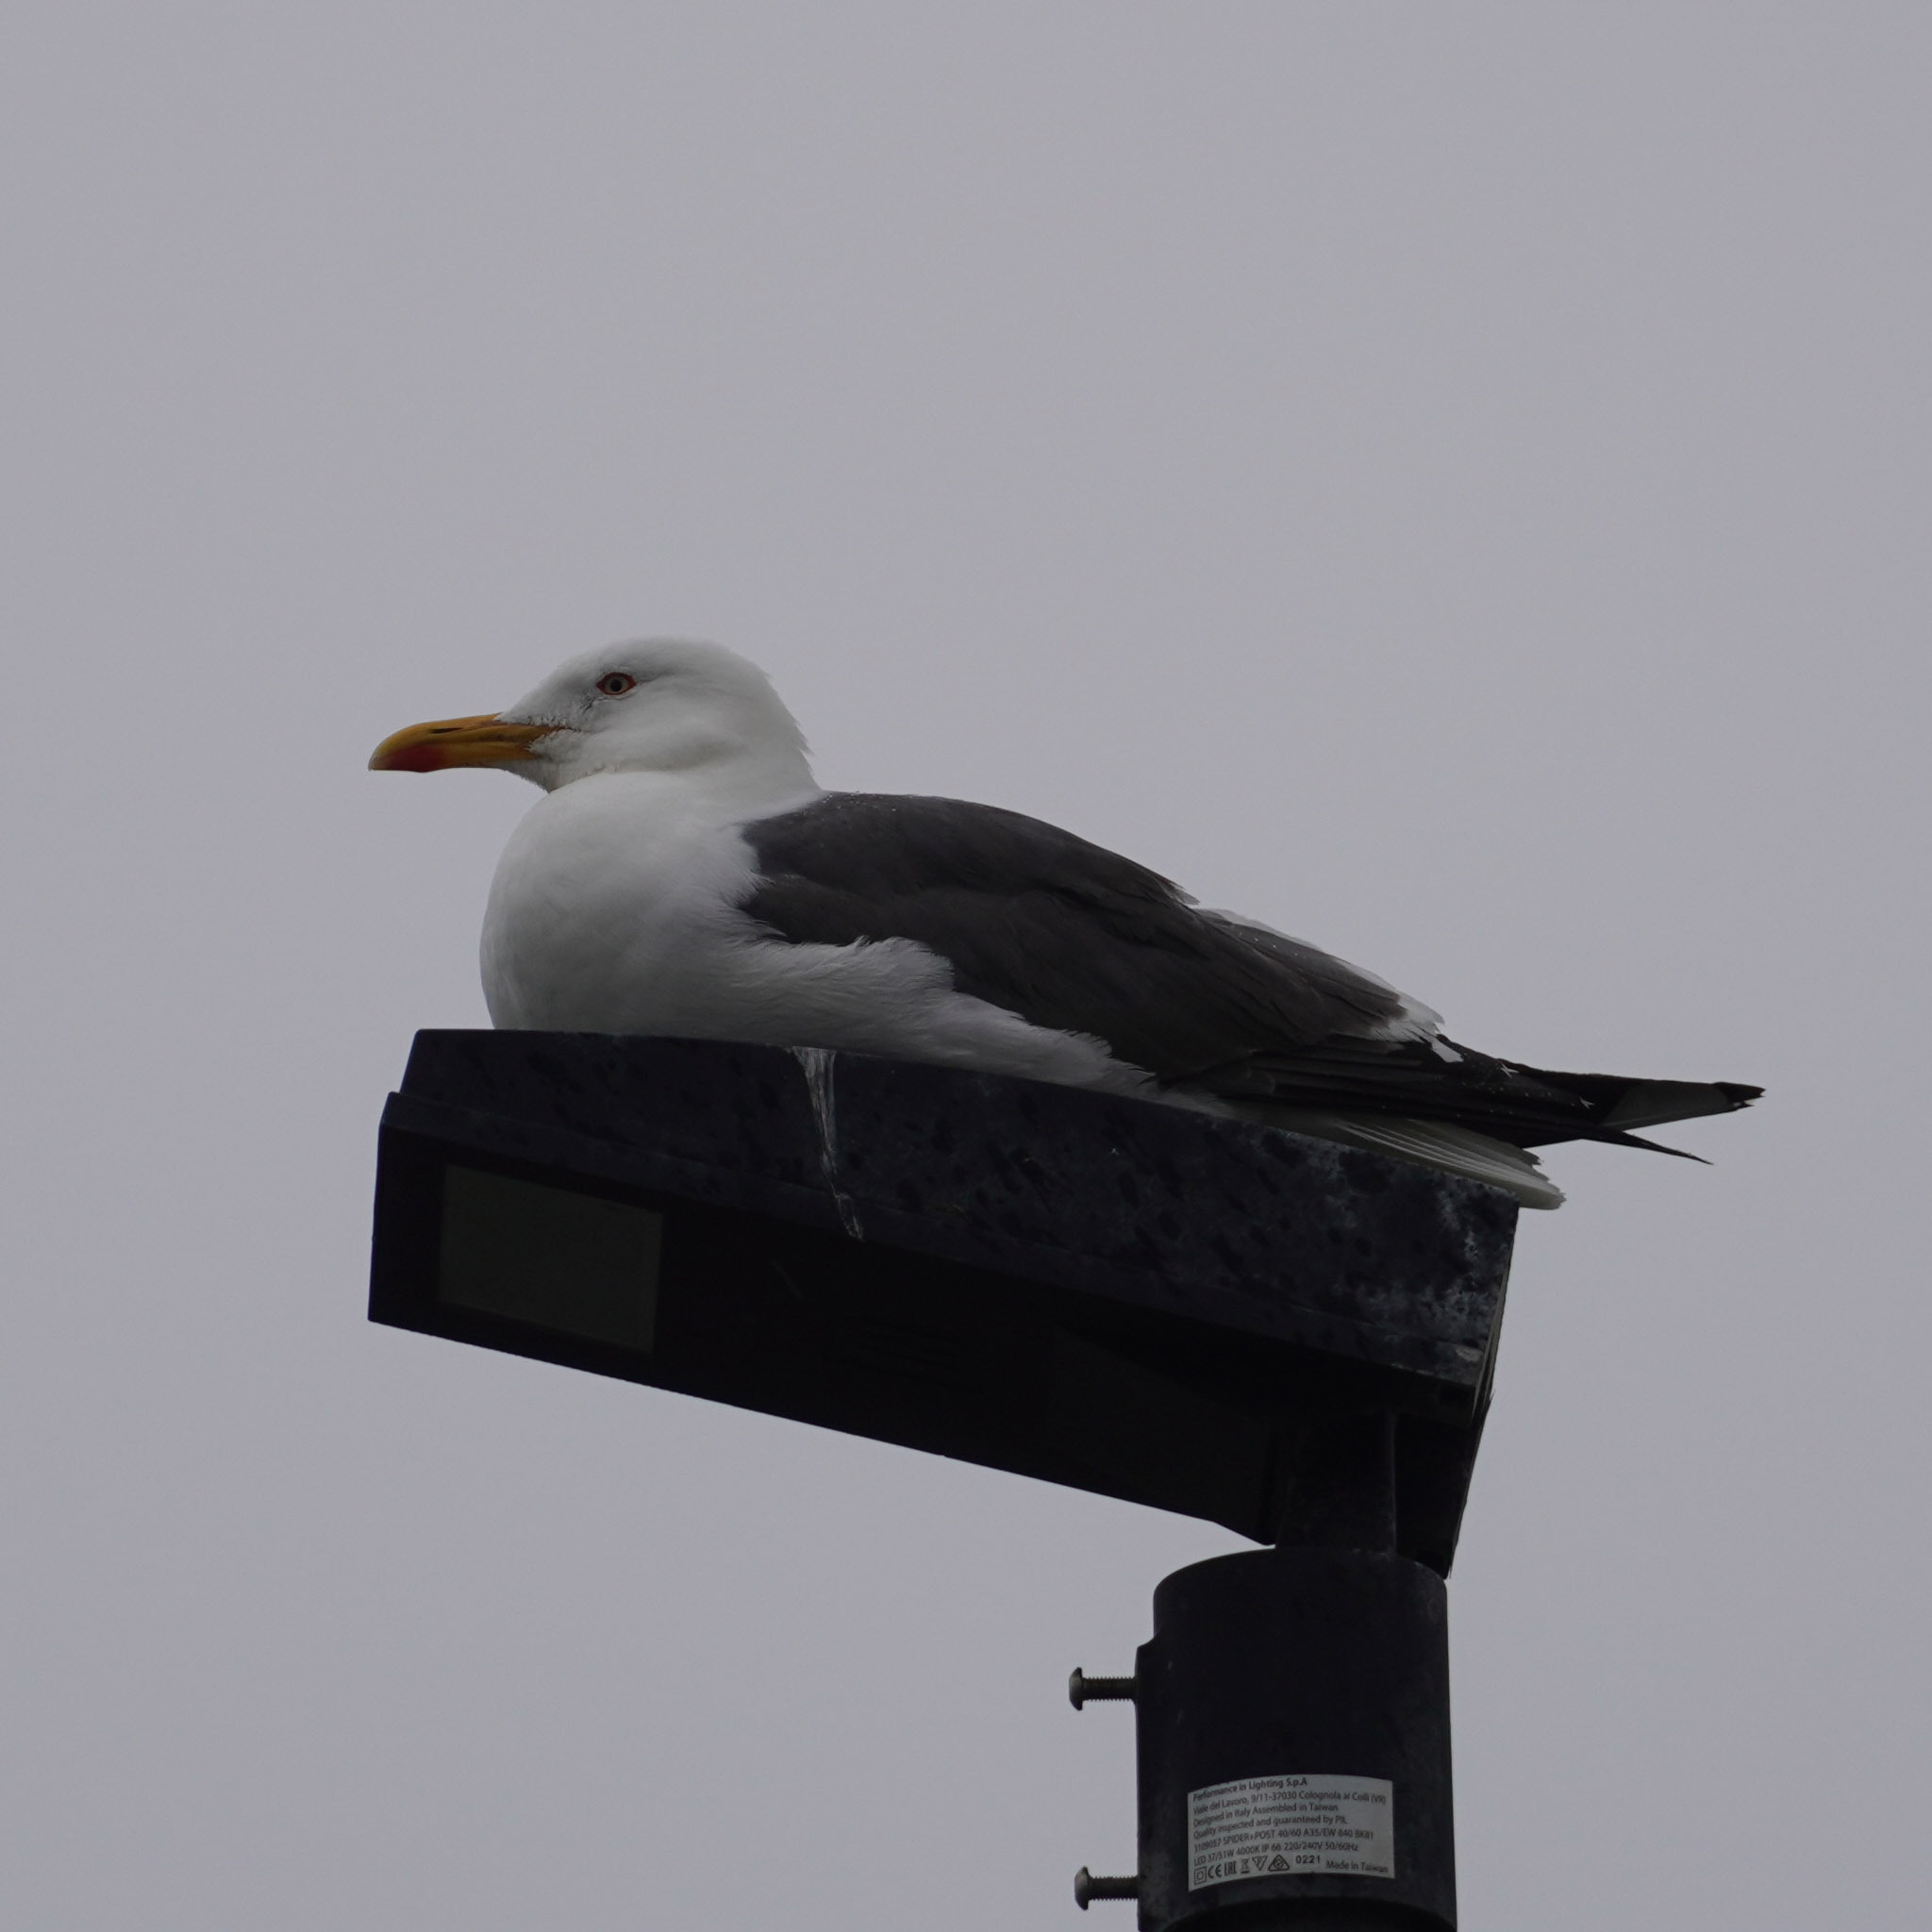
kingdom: Animalia
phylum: Chordata
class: Aves
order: Charadriiformes
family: Laridae
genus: Larus
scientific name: Larus fuscus
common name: Lesser black-backed gull
